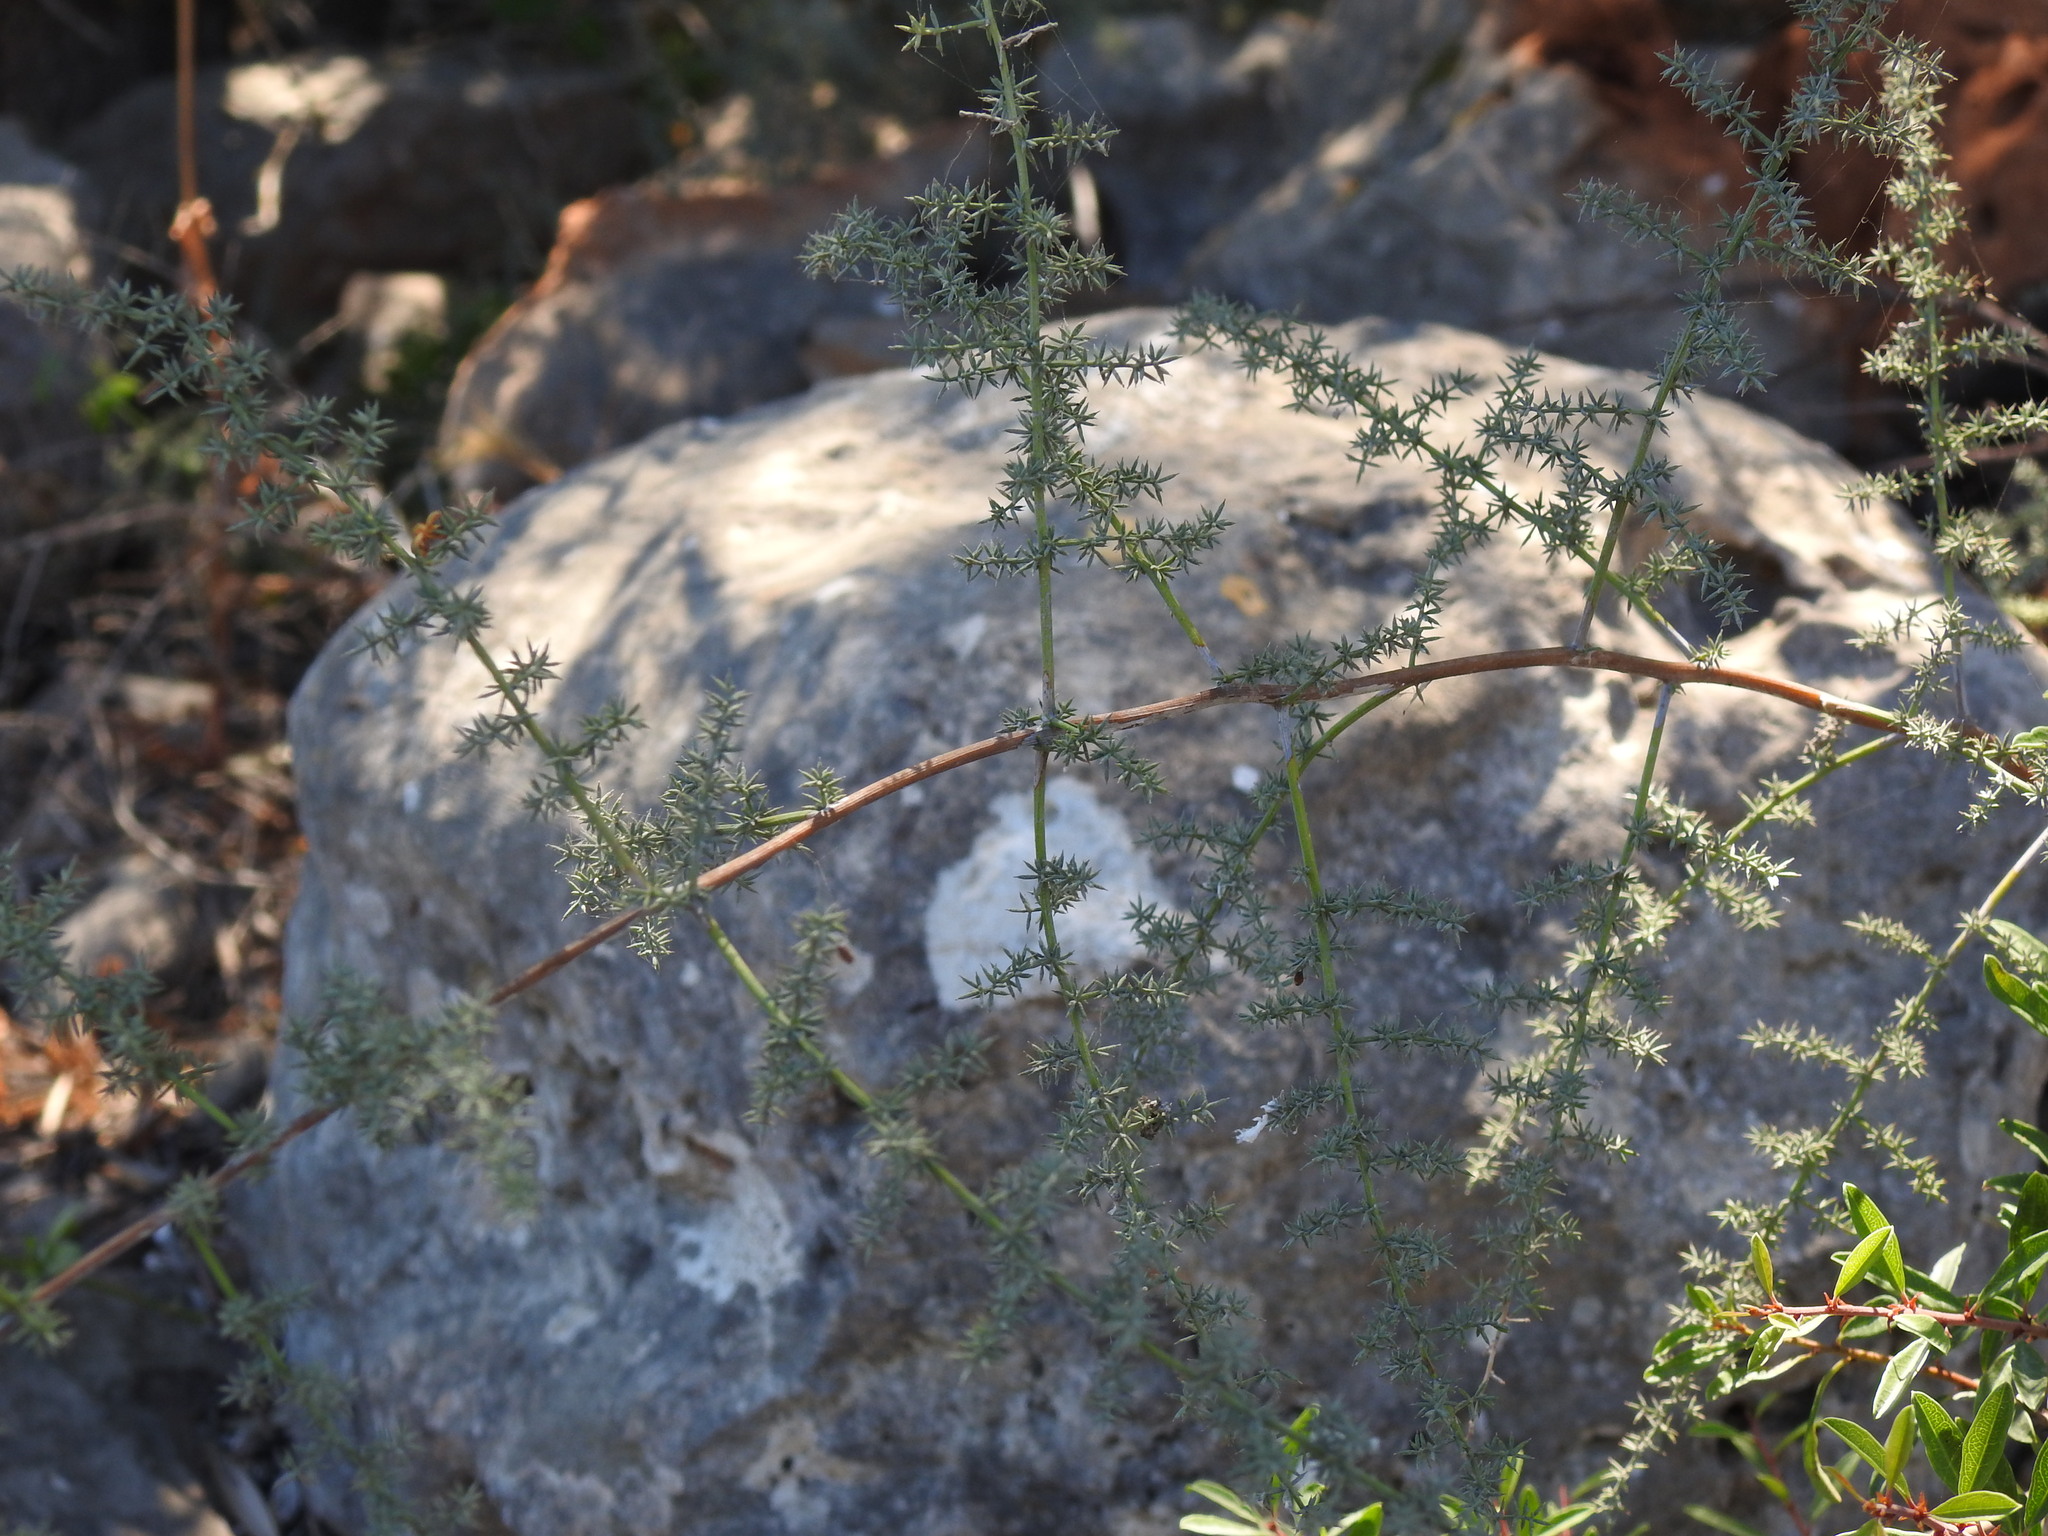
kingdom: Plantae
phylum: Tracheophyta
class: Liliopsida
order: Asparagales
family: Asparagaceae
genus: Asparagus
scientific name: Asparagus acutifolius
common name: Wild asparagus
